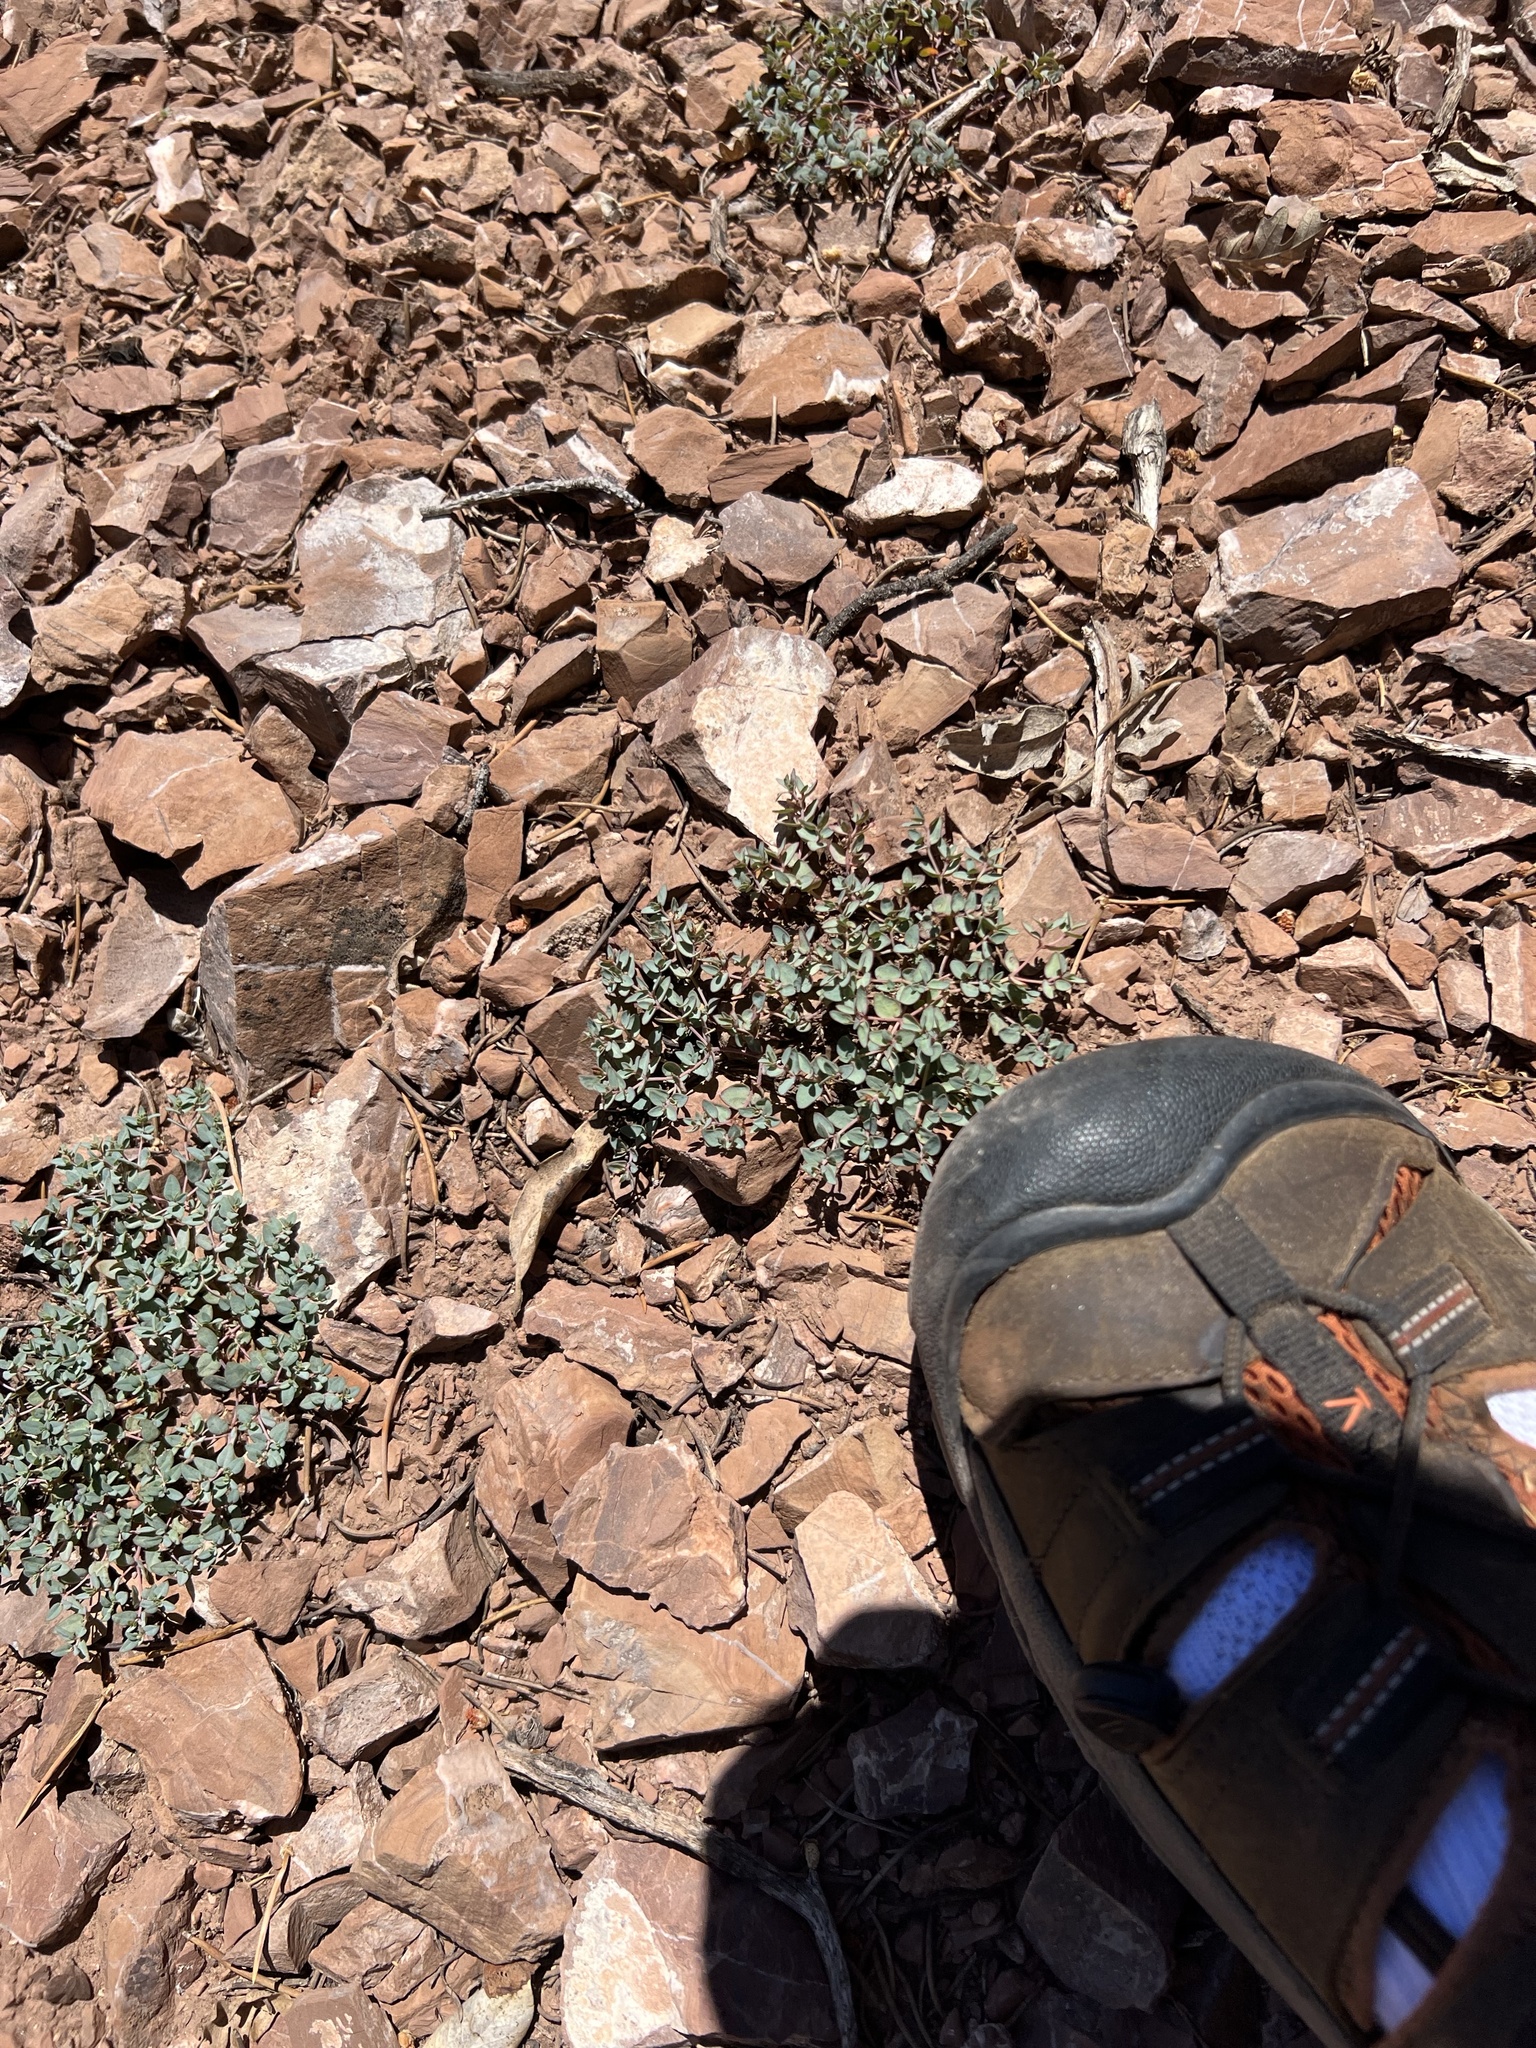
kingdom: Plantae
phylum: Tracheophyta
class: Magnoliopsida
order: Malpighiales
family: Euphorbiaceae
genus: Euphorbia
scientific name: Euphorbia fendleri
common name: Fendler's euphorbia
